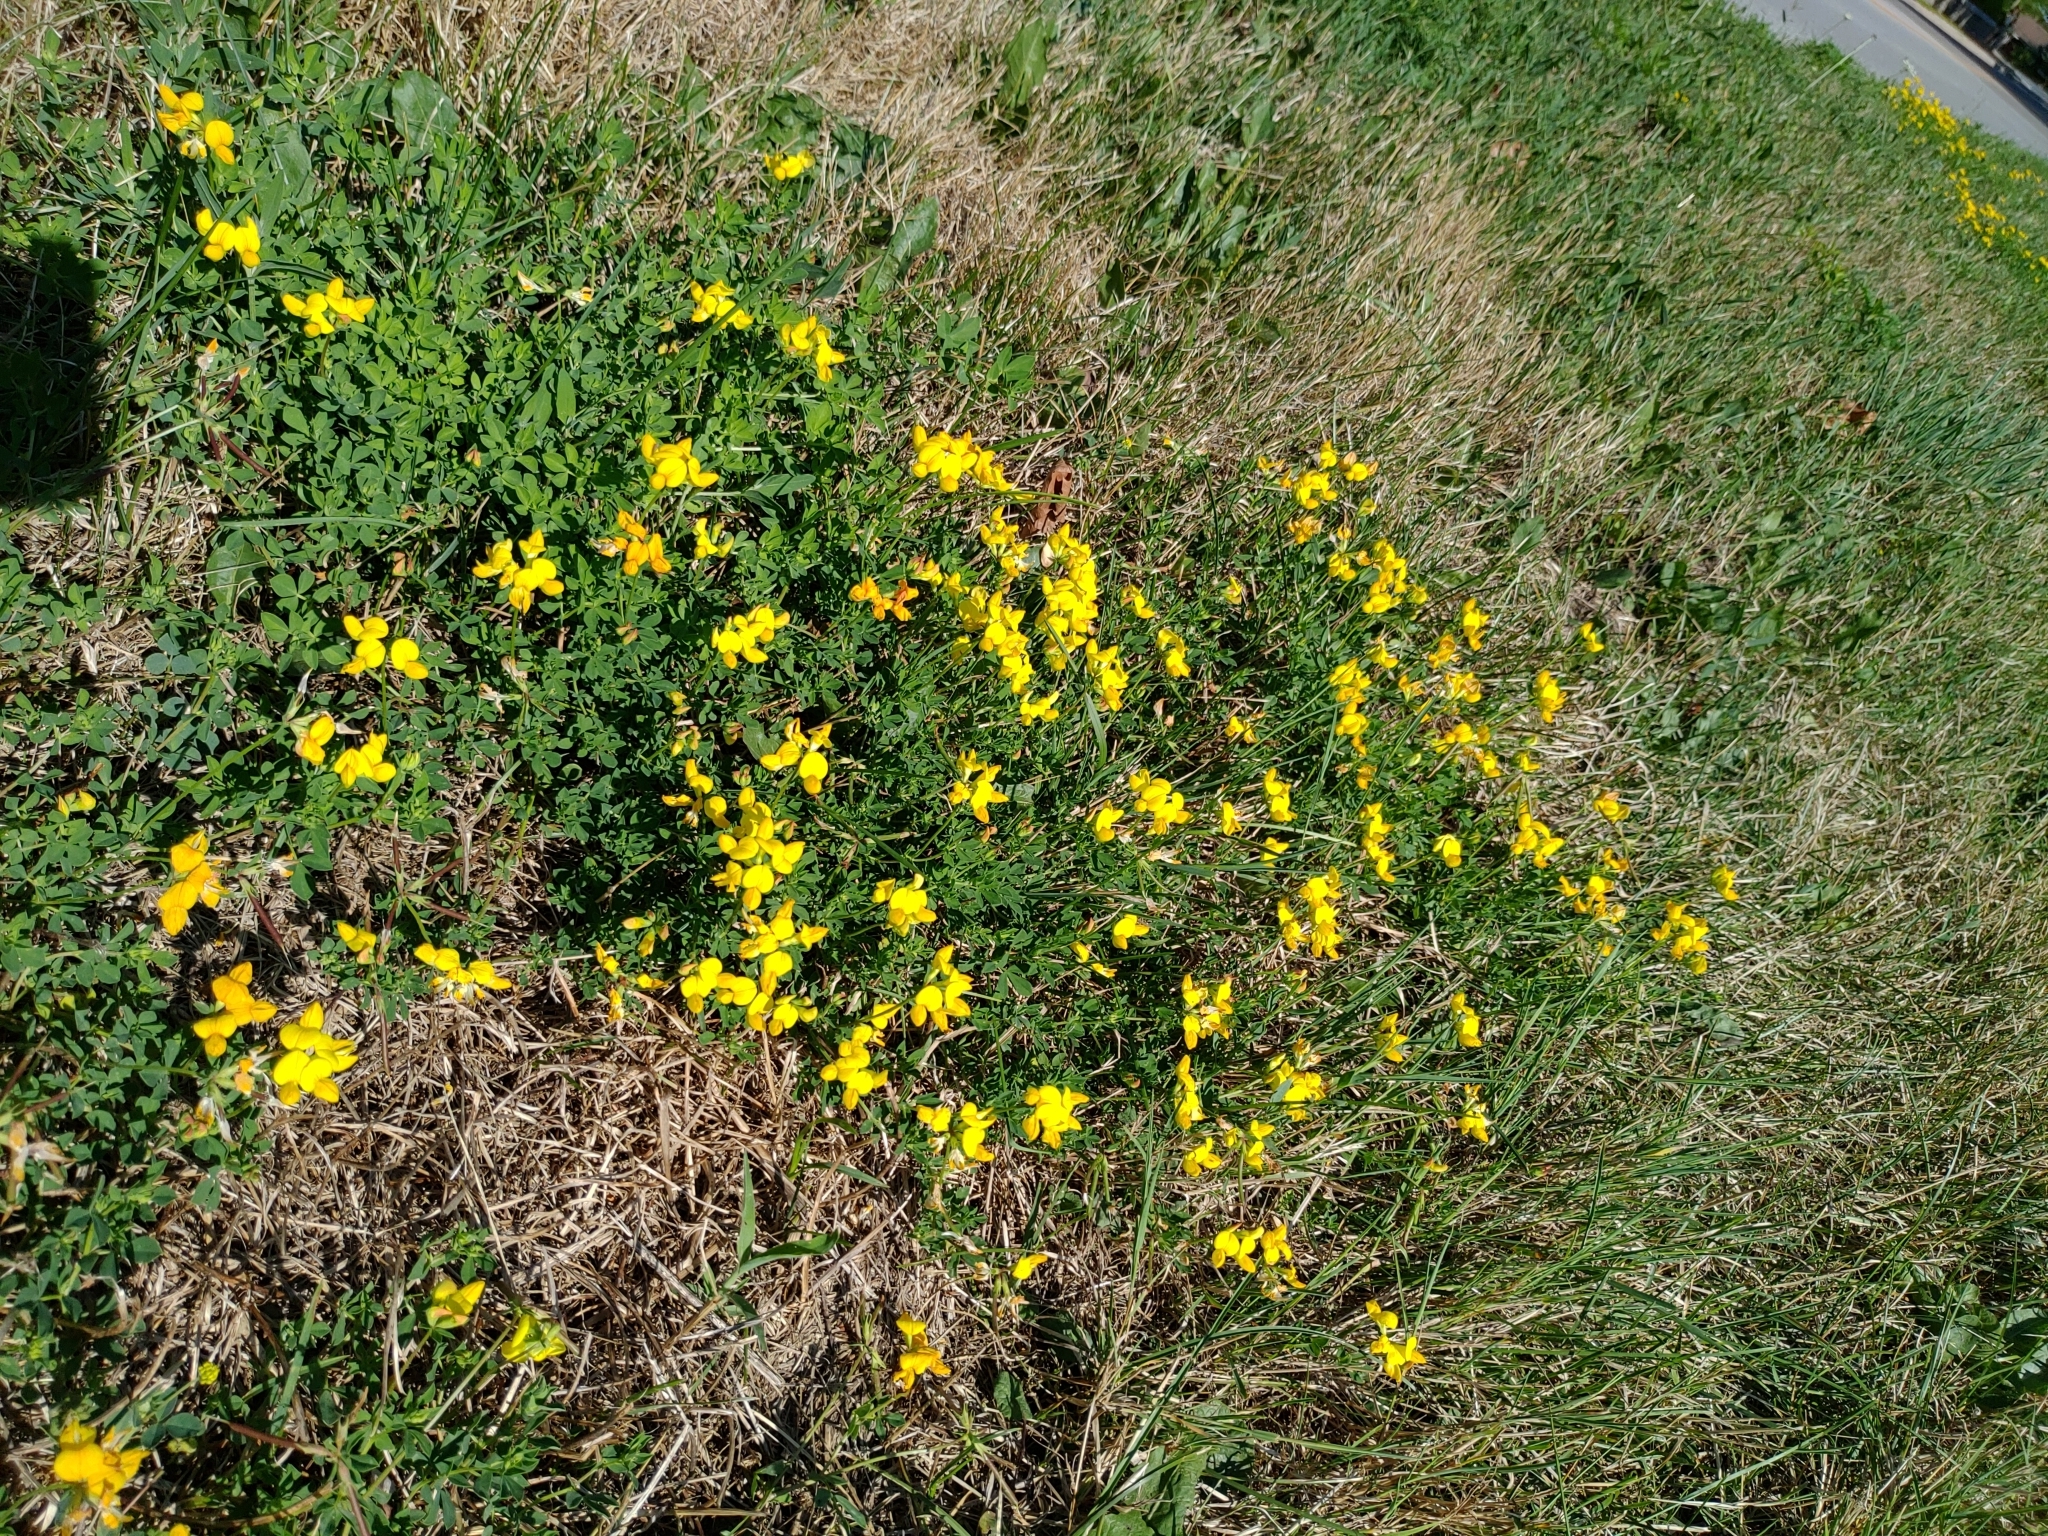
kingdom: Plantae
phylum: Tracheophyta
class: Magnoliopsida
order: Fabales
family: Fabaceae
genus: Lotus
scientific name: Lotus corniculatus
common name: Common bird's-foot-trefoil
